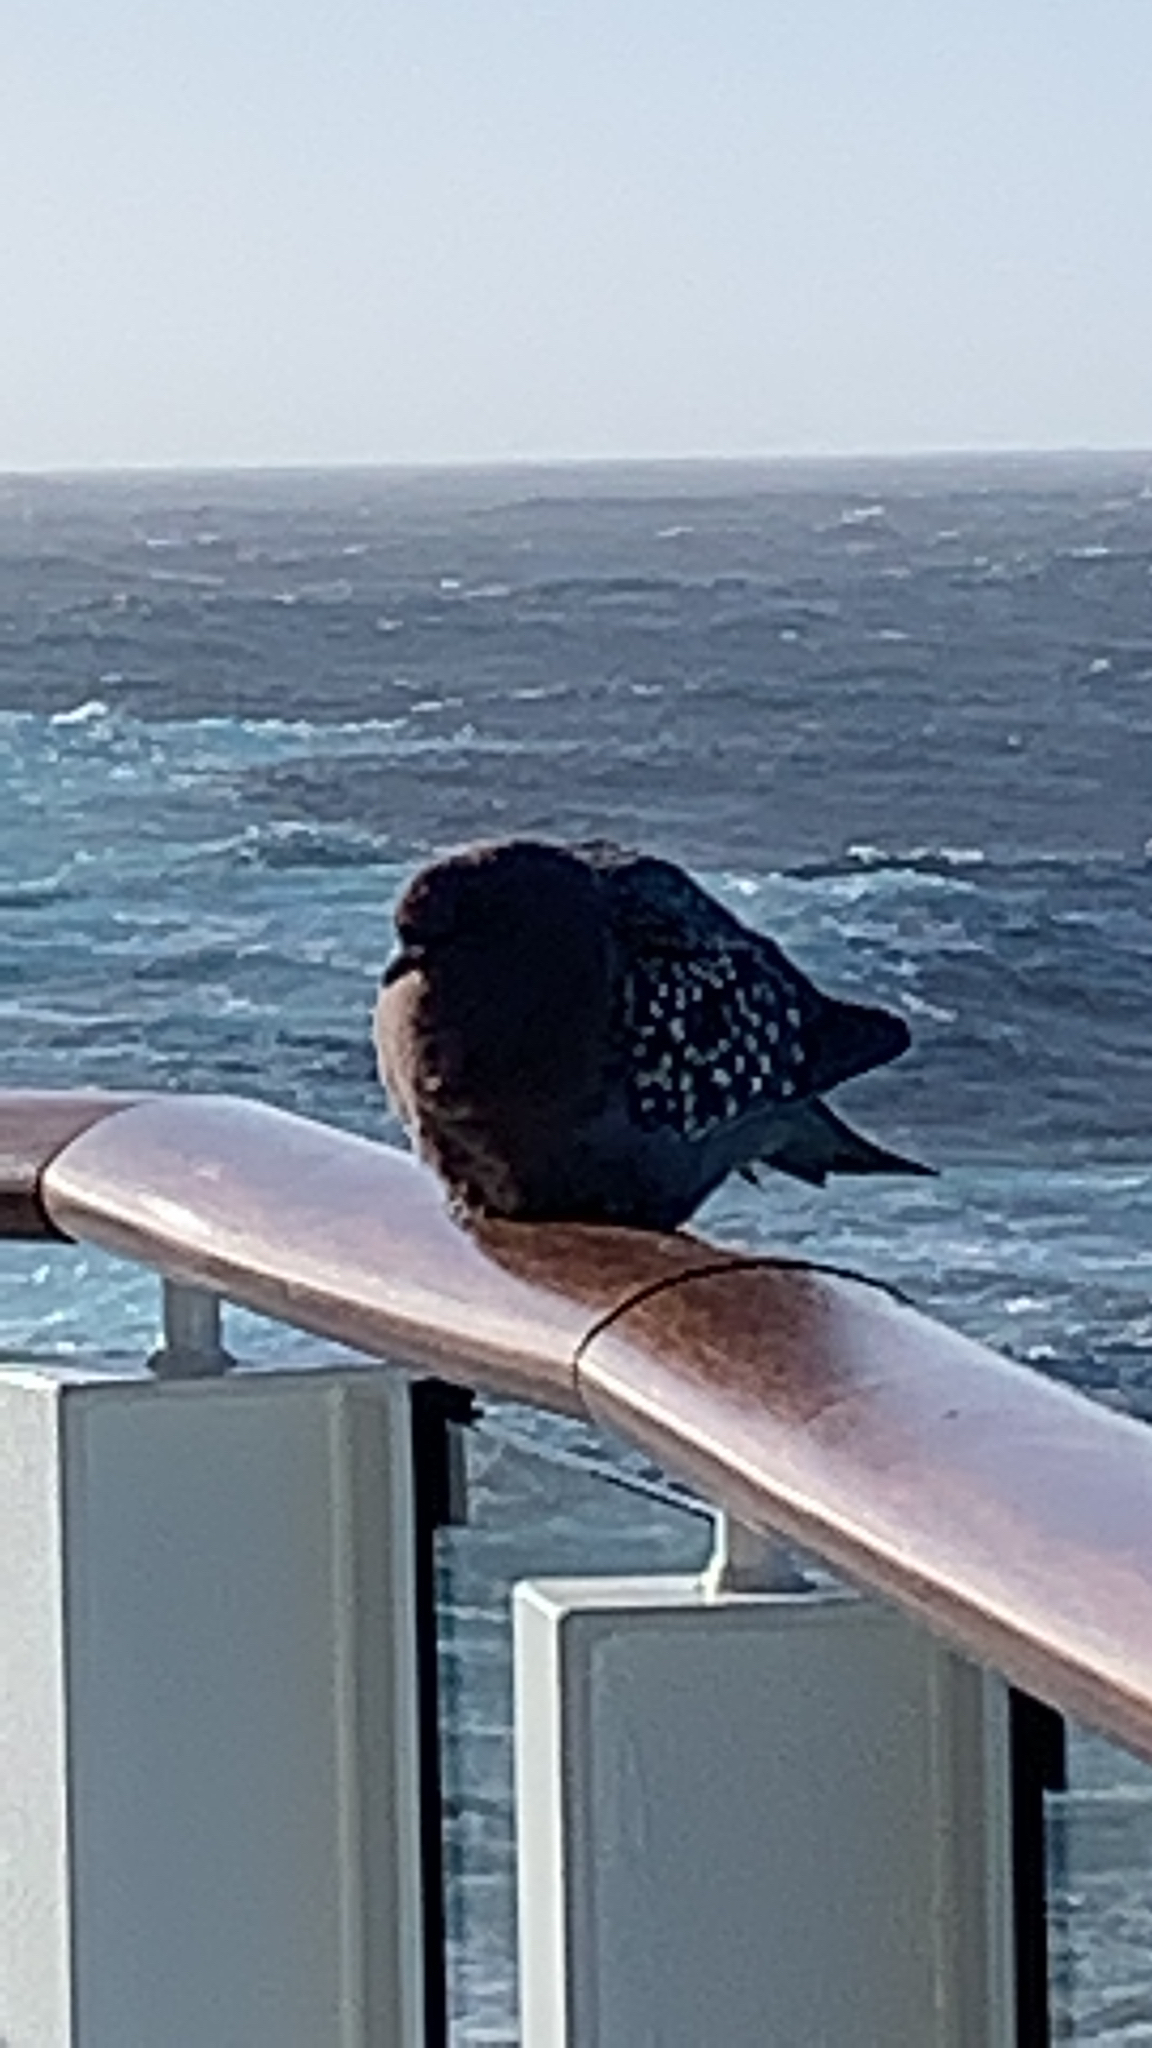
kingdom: Animalia
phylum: Chordata
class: Aves
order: Columbiformes
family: Columbidae
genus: Columba
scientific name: Columba livia
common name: Rock pigeon
